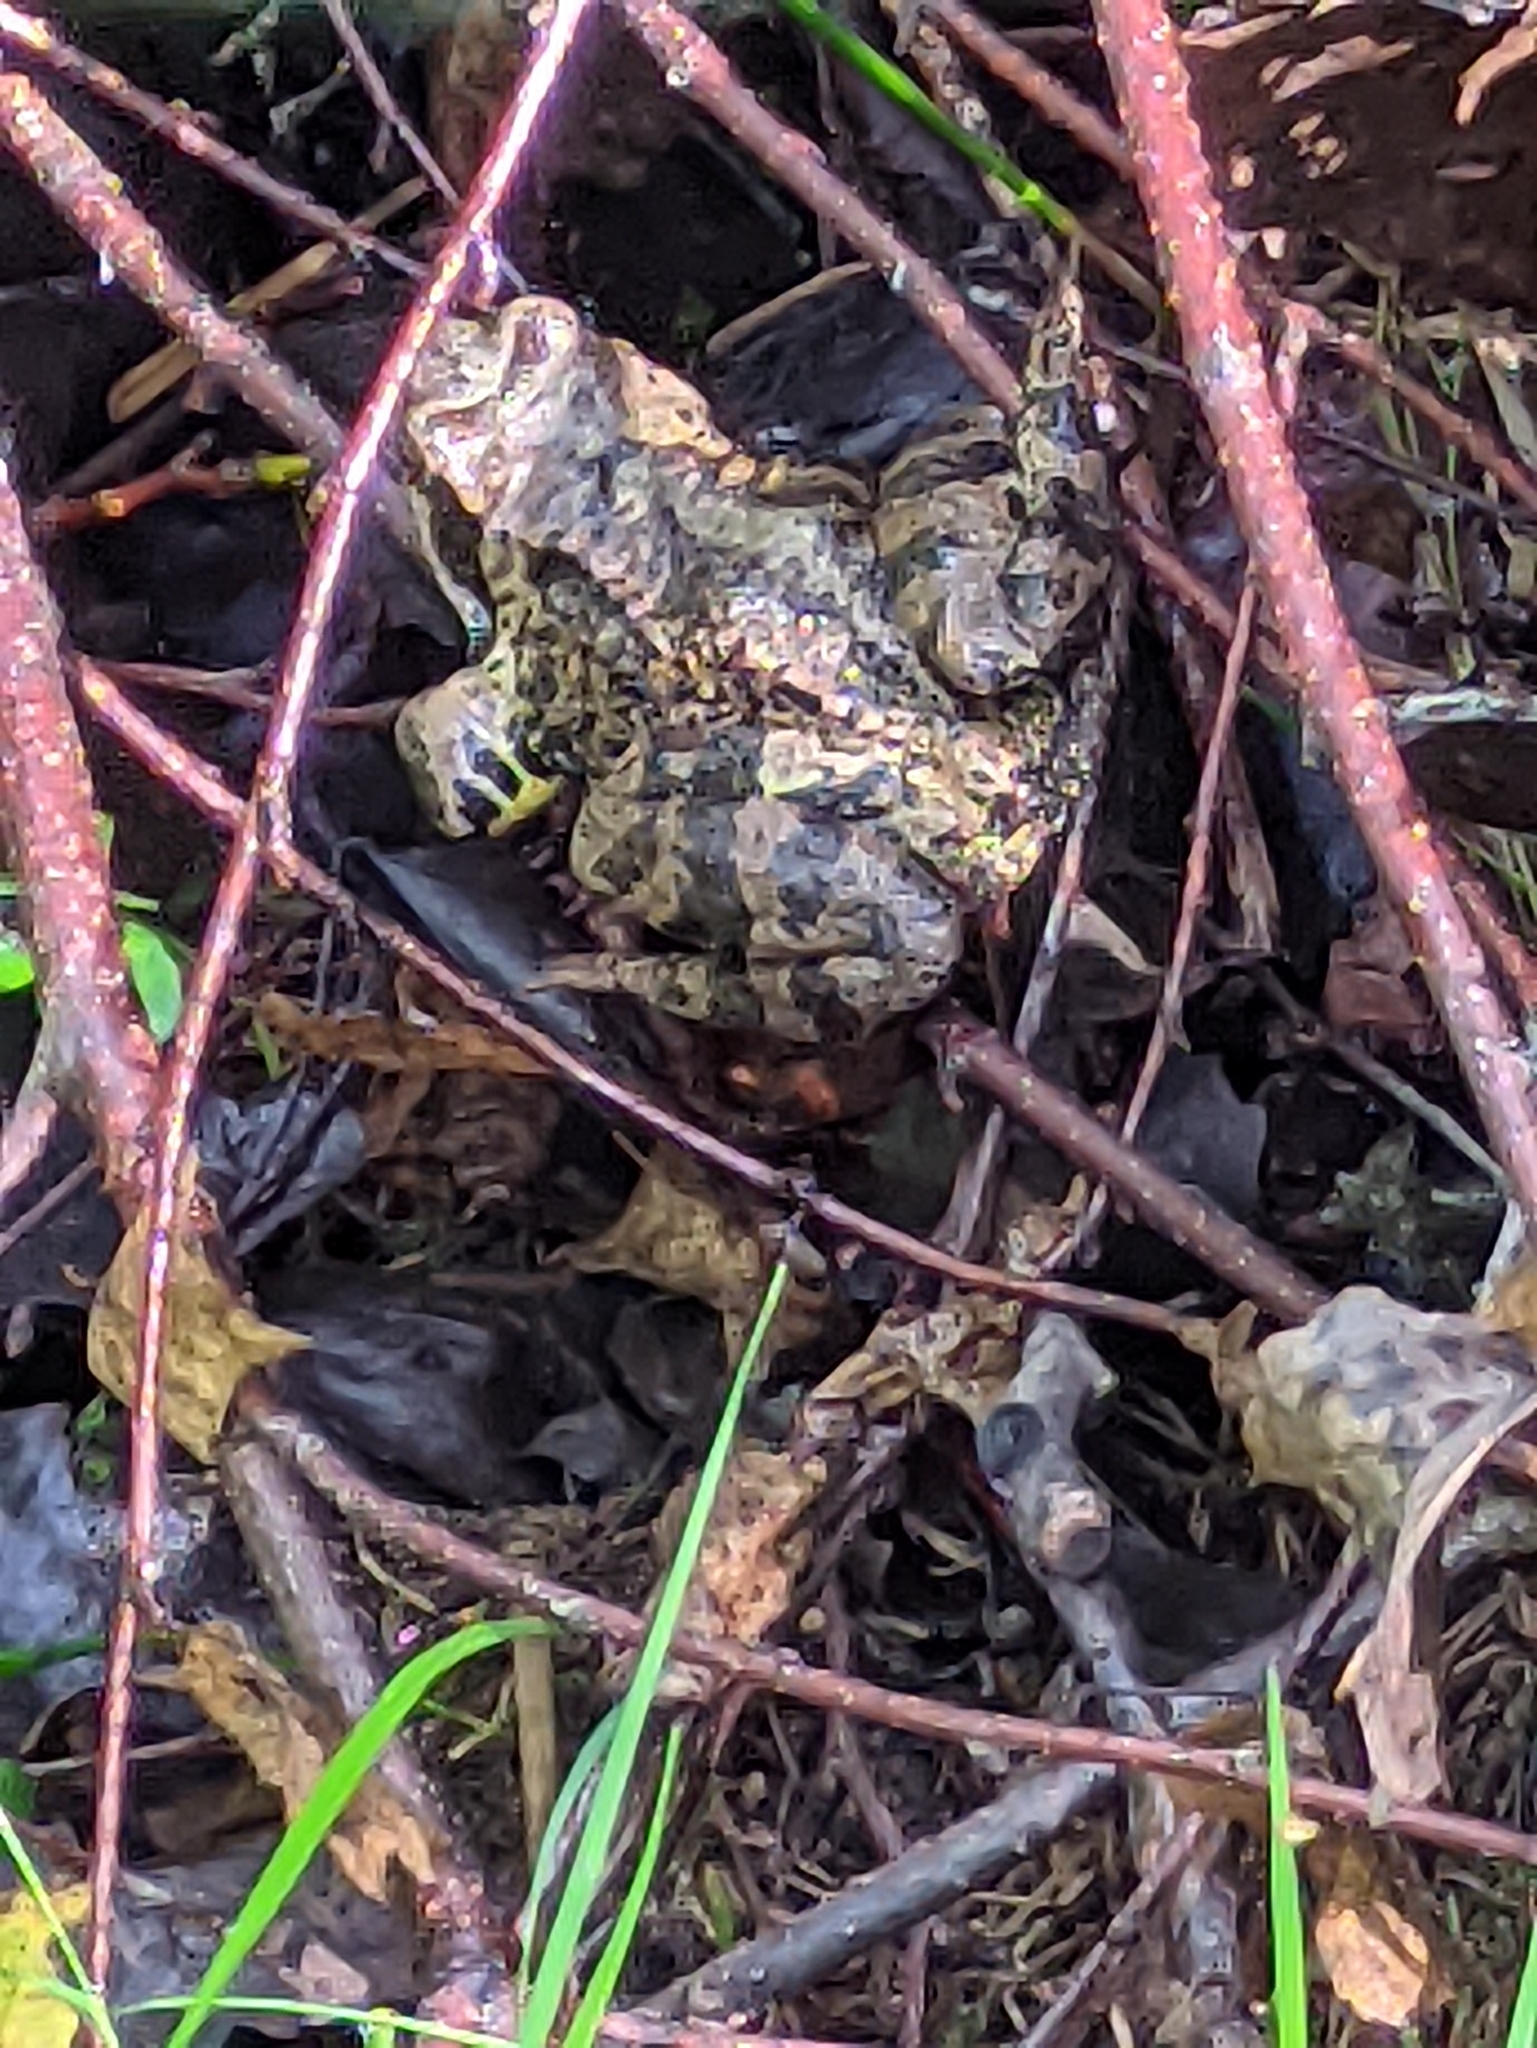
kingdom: Animalia
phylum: Chordata
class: Amphibia
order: Anura
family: Ranidae
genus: Rana
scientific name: Rana temporaria
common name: Common frog
